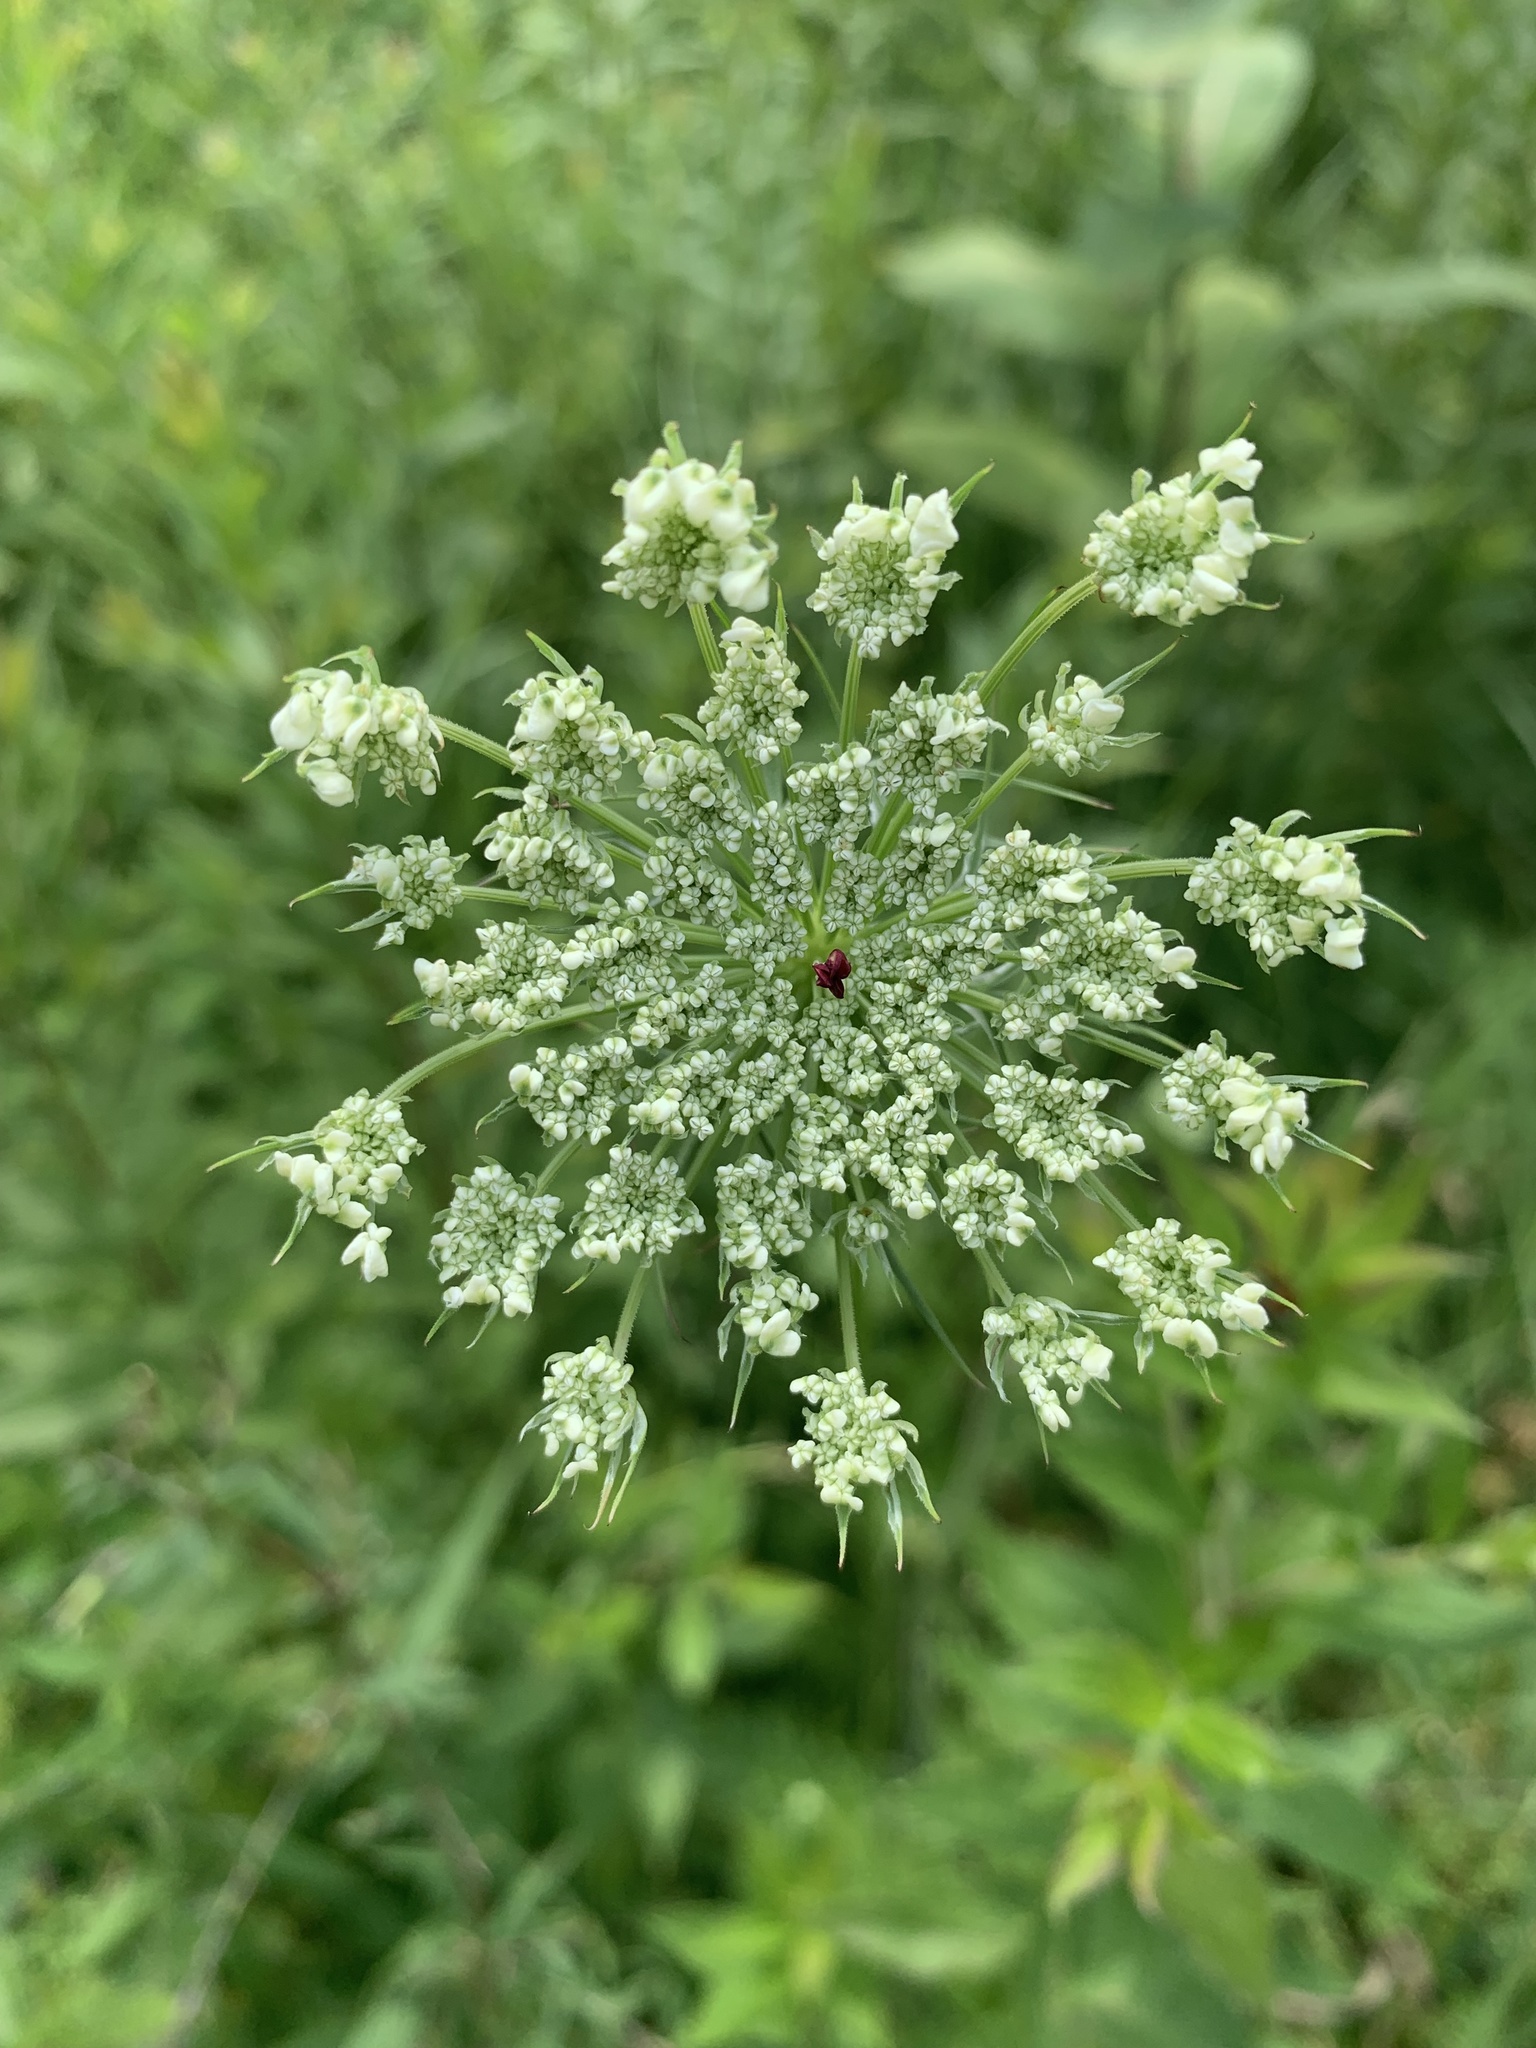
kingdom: Plantae
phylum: Tracheophyta
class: Magnoliopsida
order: Apiales
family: Apiaceae
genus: Daucus
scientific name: Daucus carota
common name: Wild carrot
